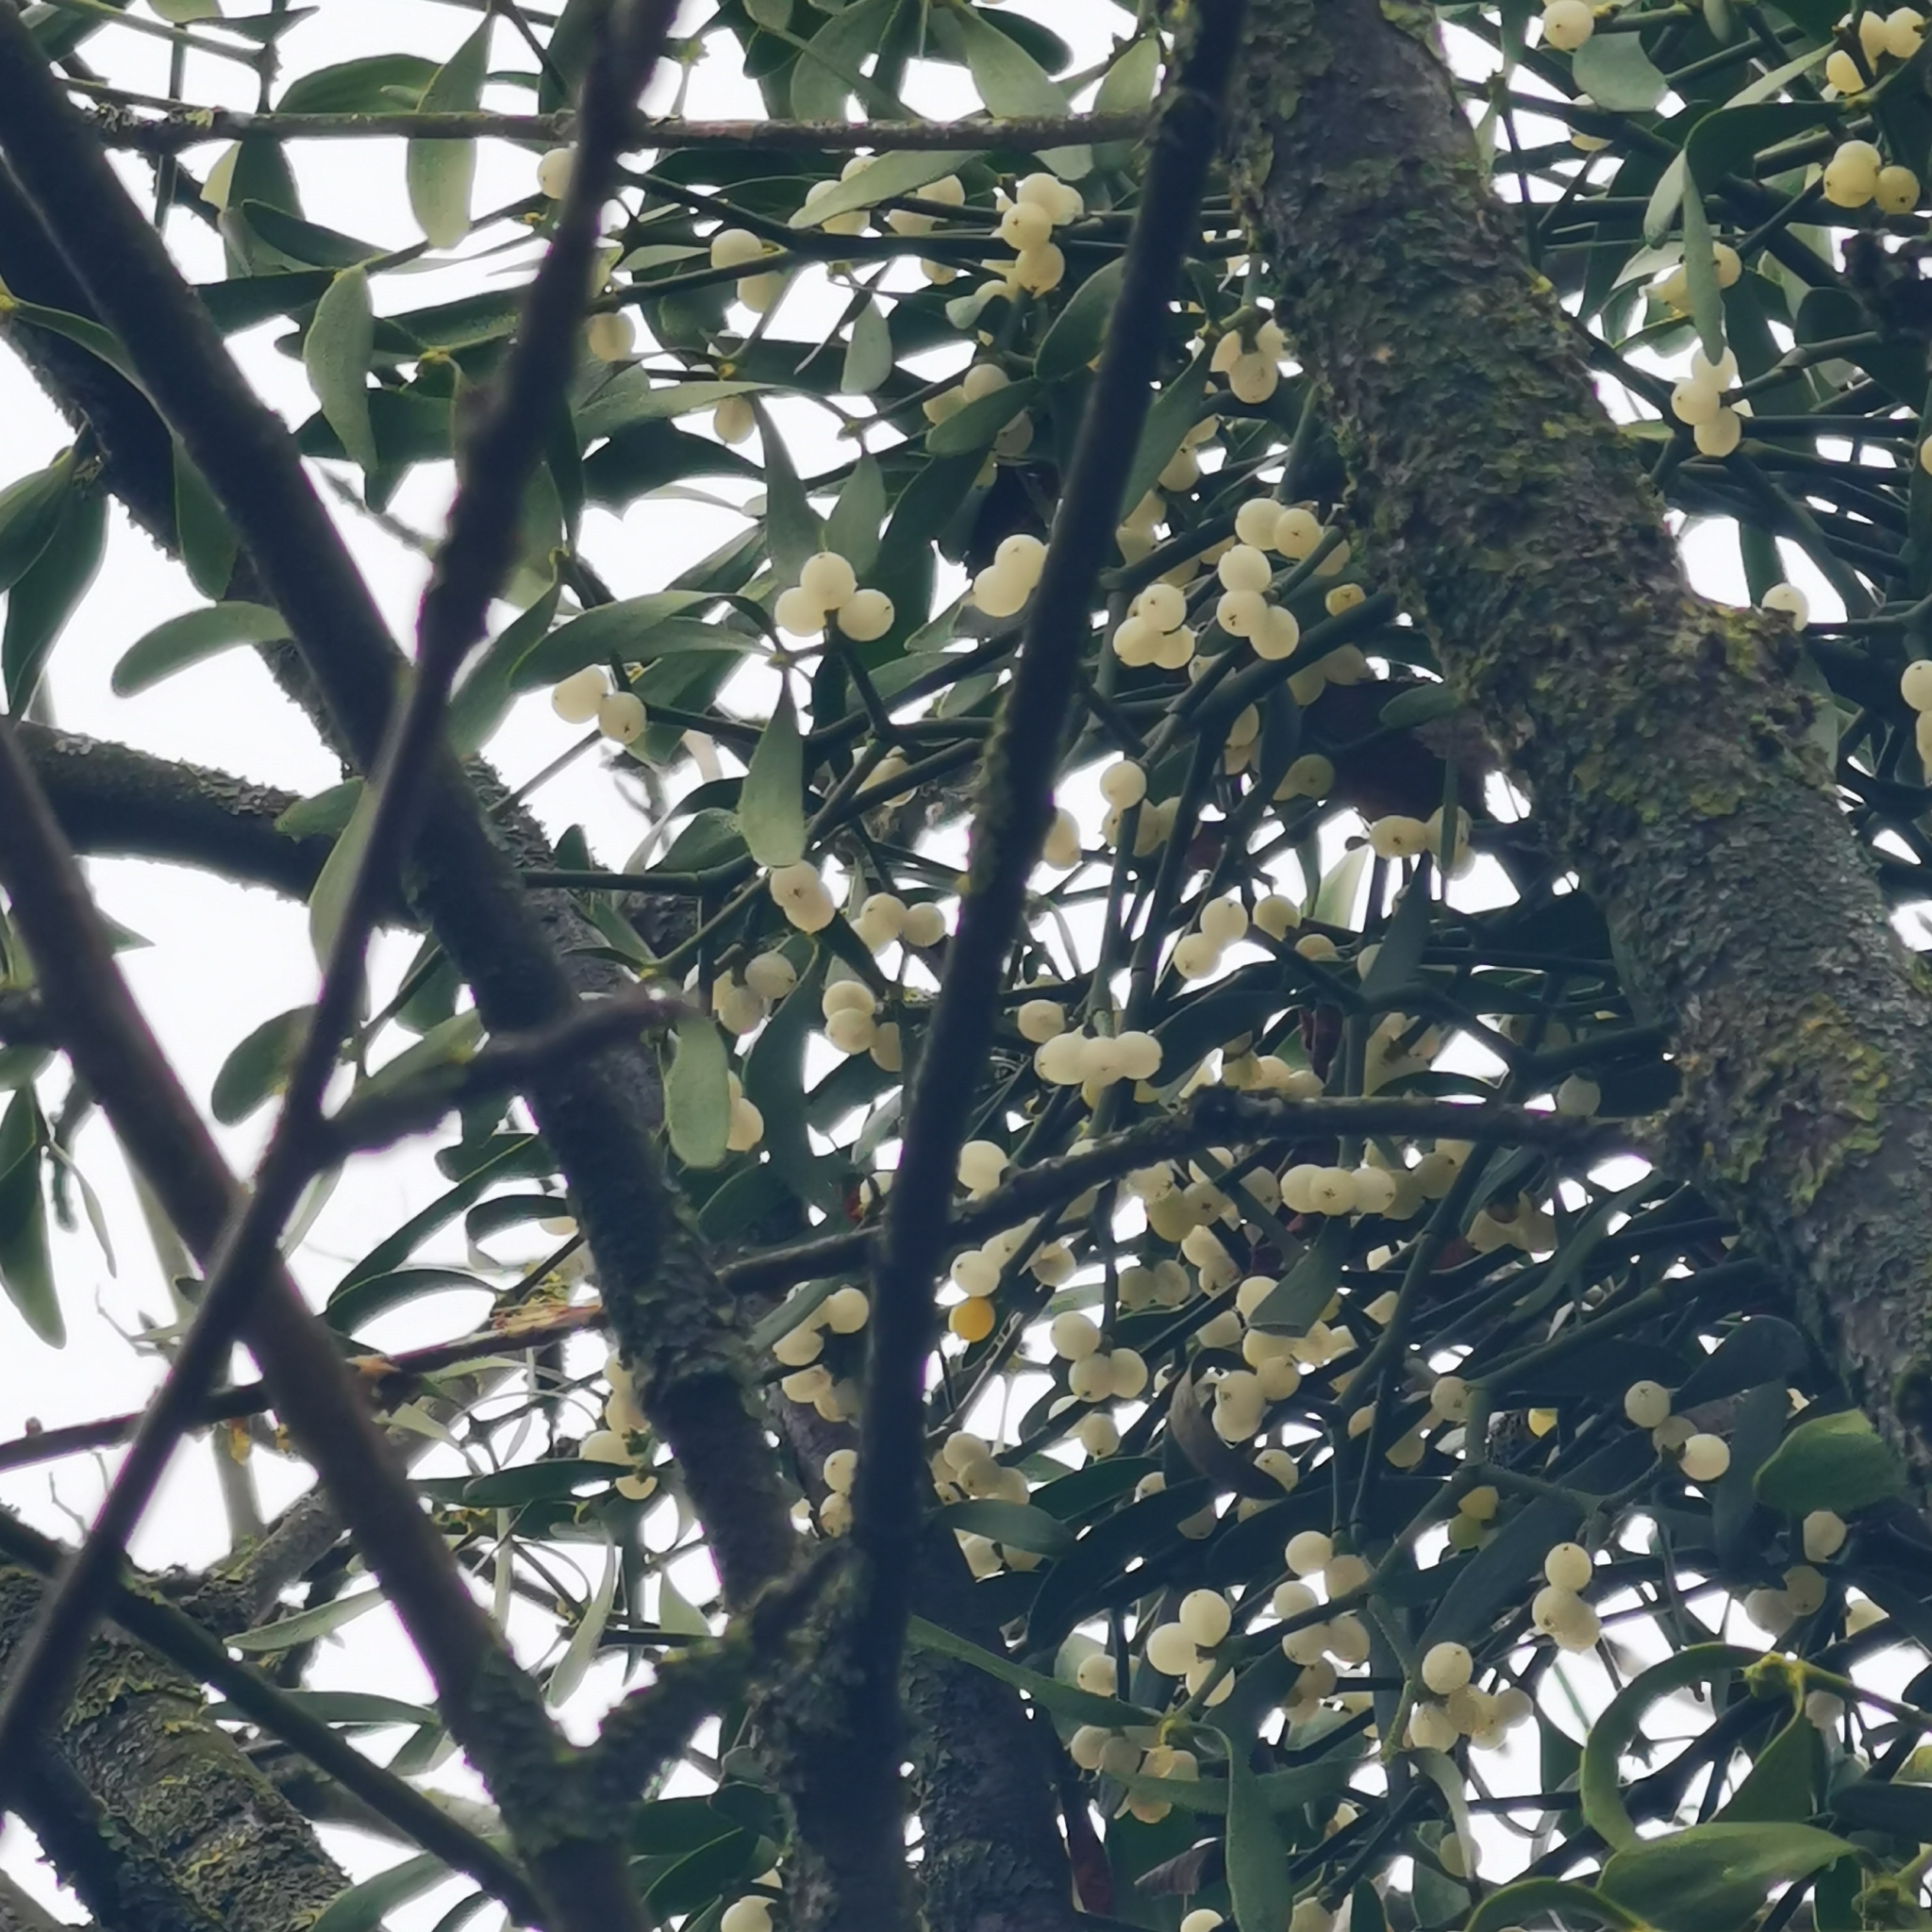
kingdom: Plantae
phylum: Tracheophyta
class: Magnoliopsida
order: Santalales
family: Viscaceae
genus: Viscum
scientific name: Viscum album
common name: Mistletoe
